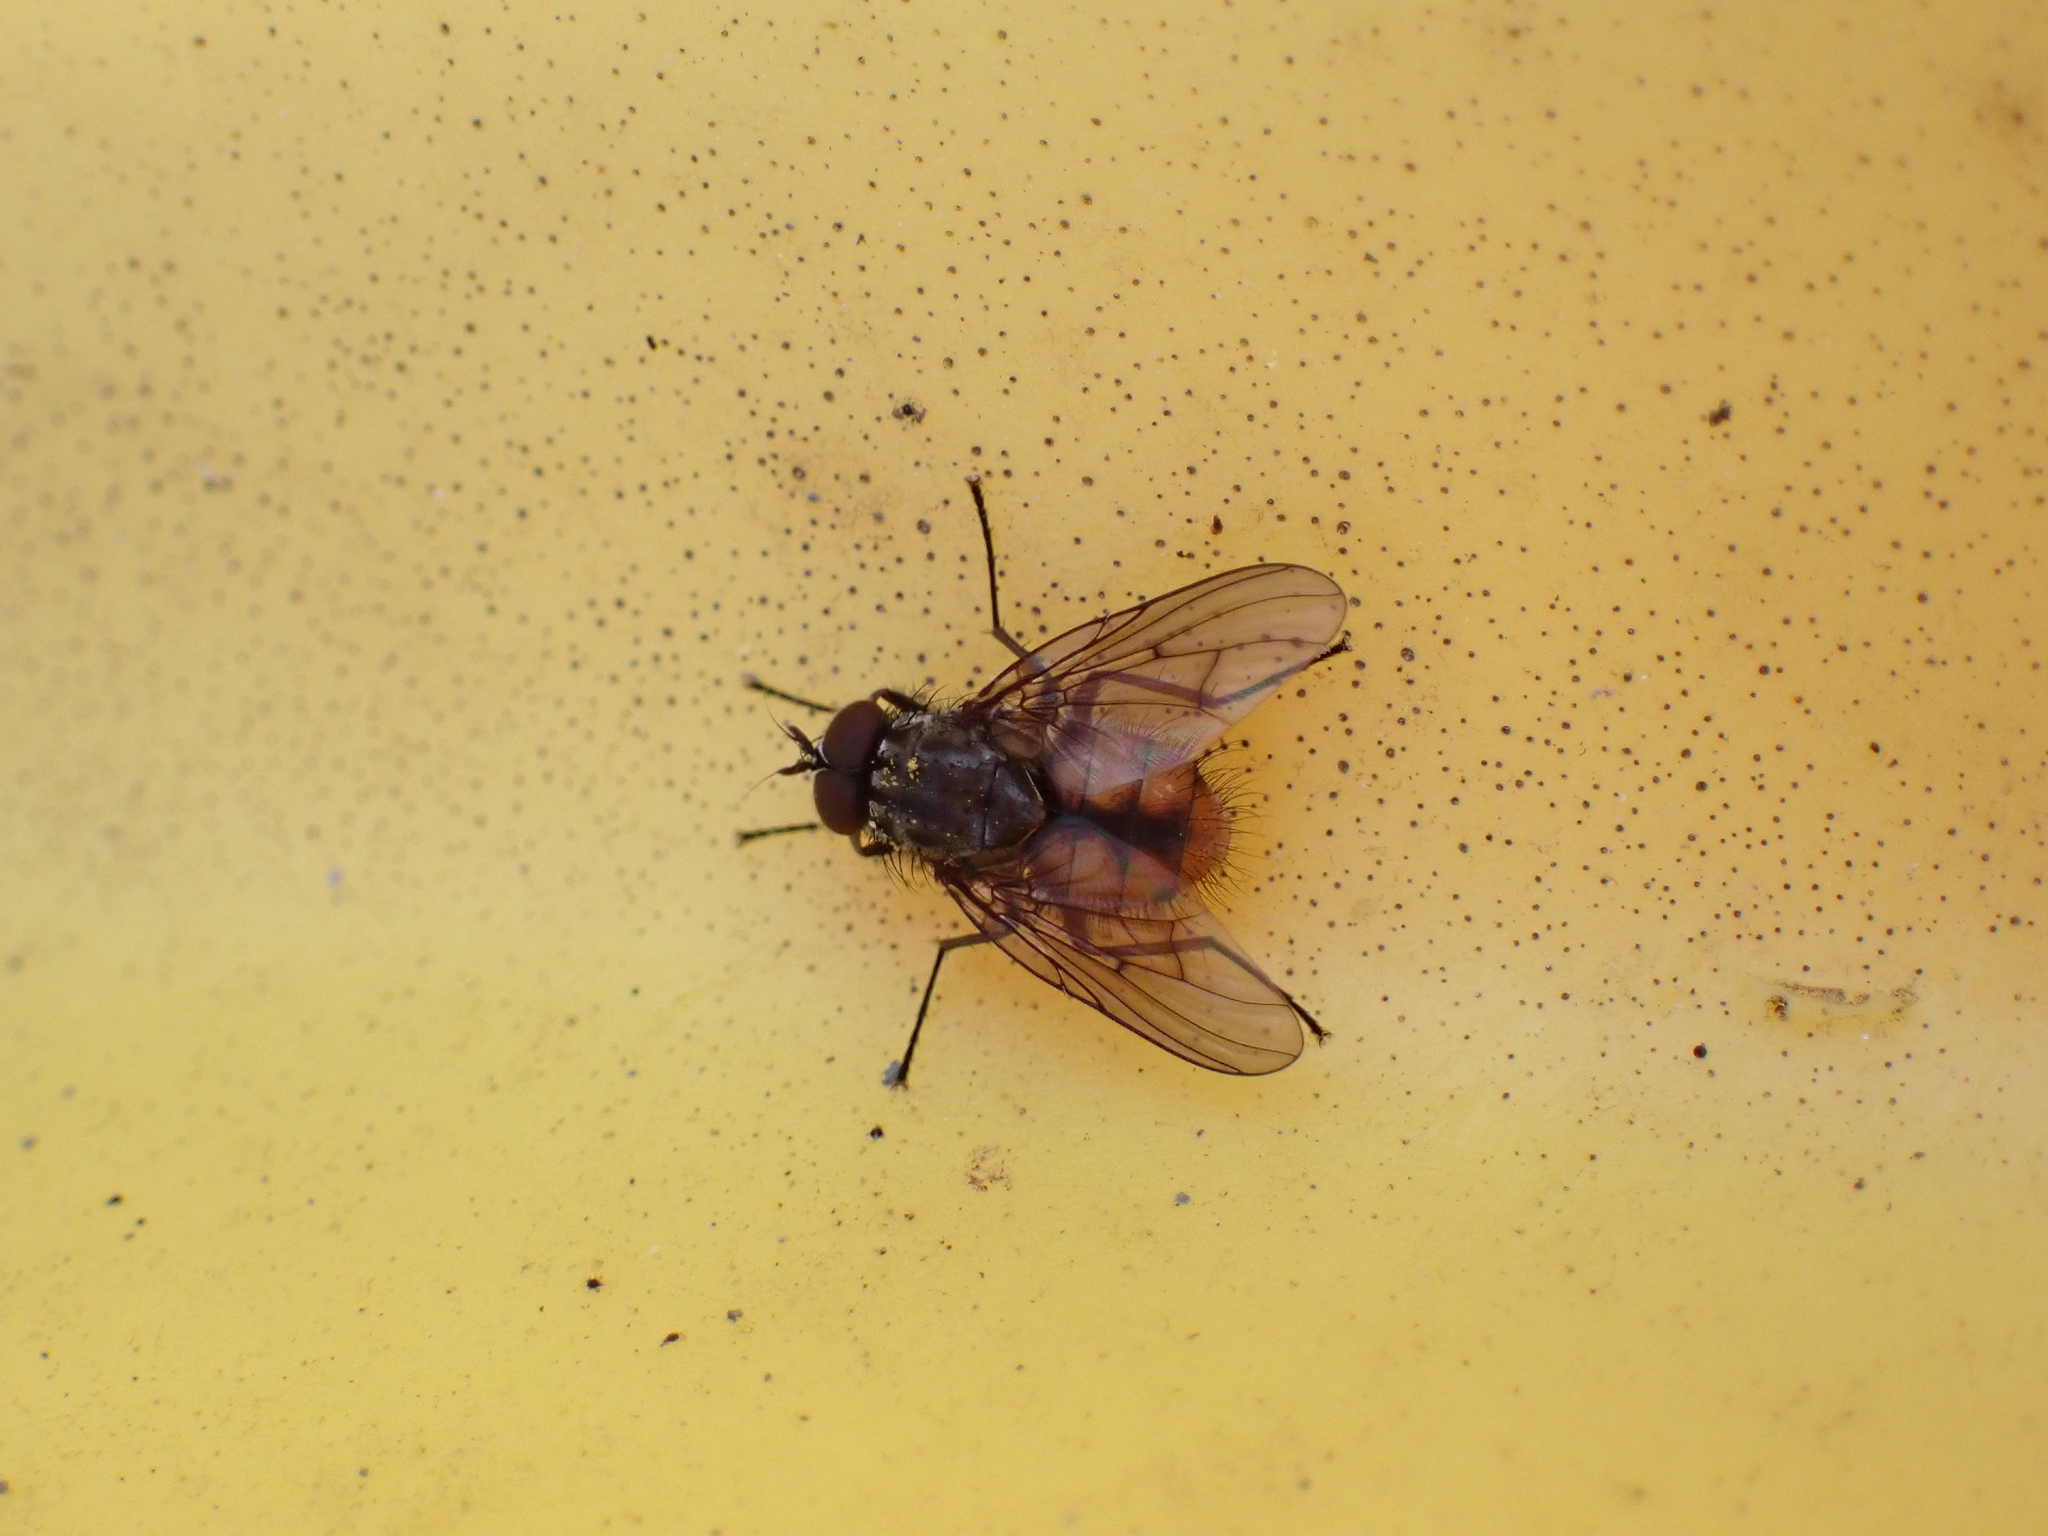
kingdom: Animalia
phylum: Arthropoda
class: Insecta
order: Diptera
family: Muscidae
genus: Phaonia
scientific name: Phaonia subventa
